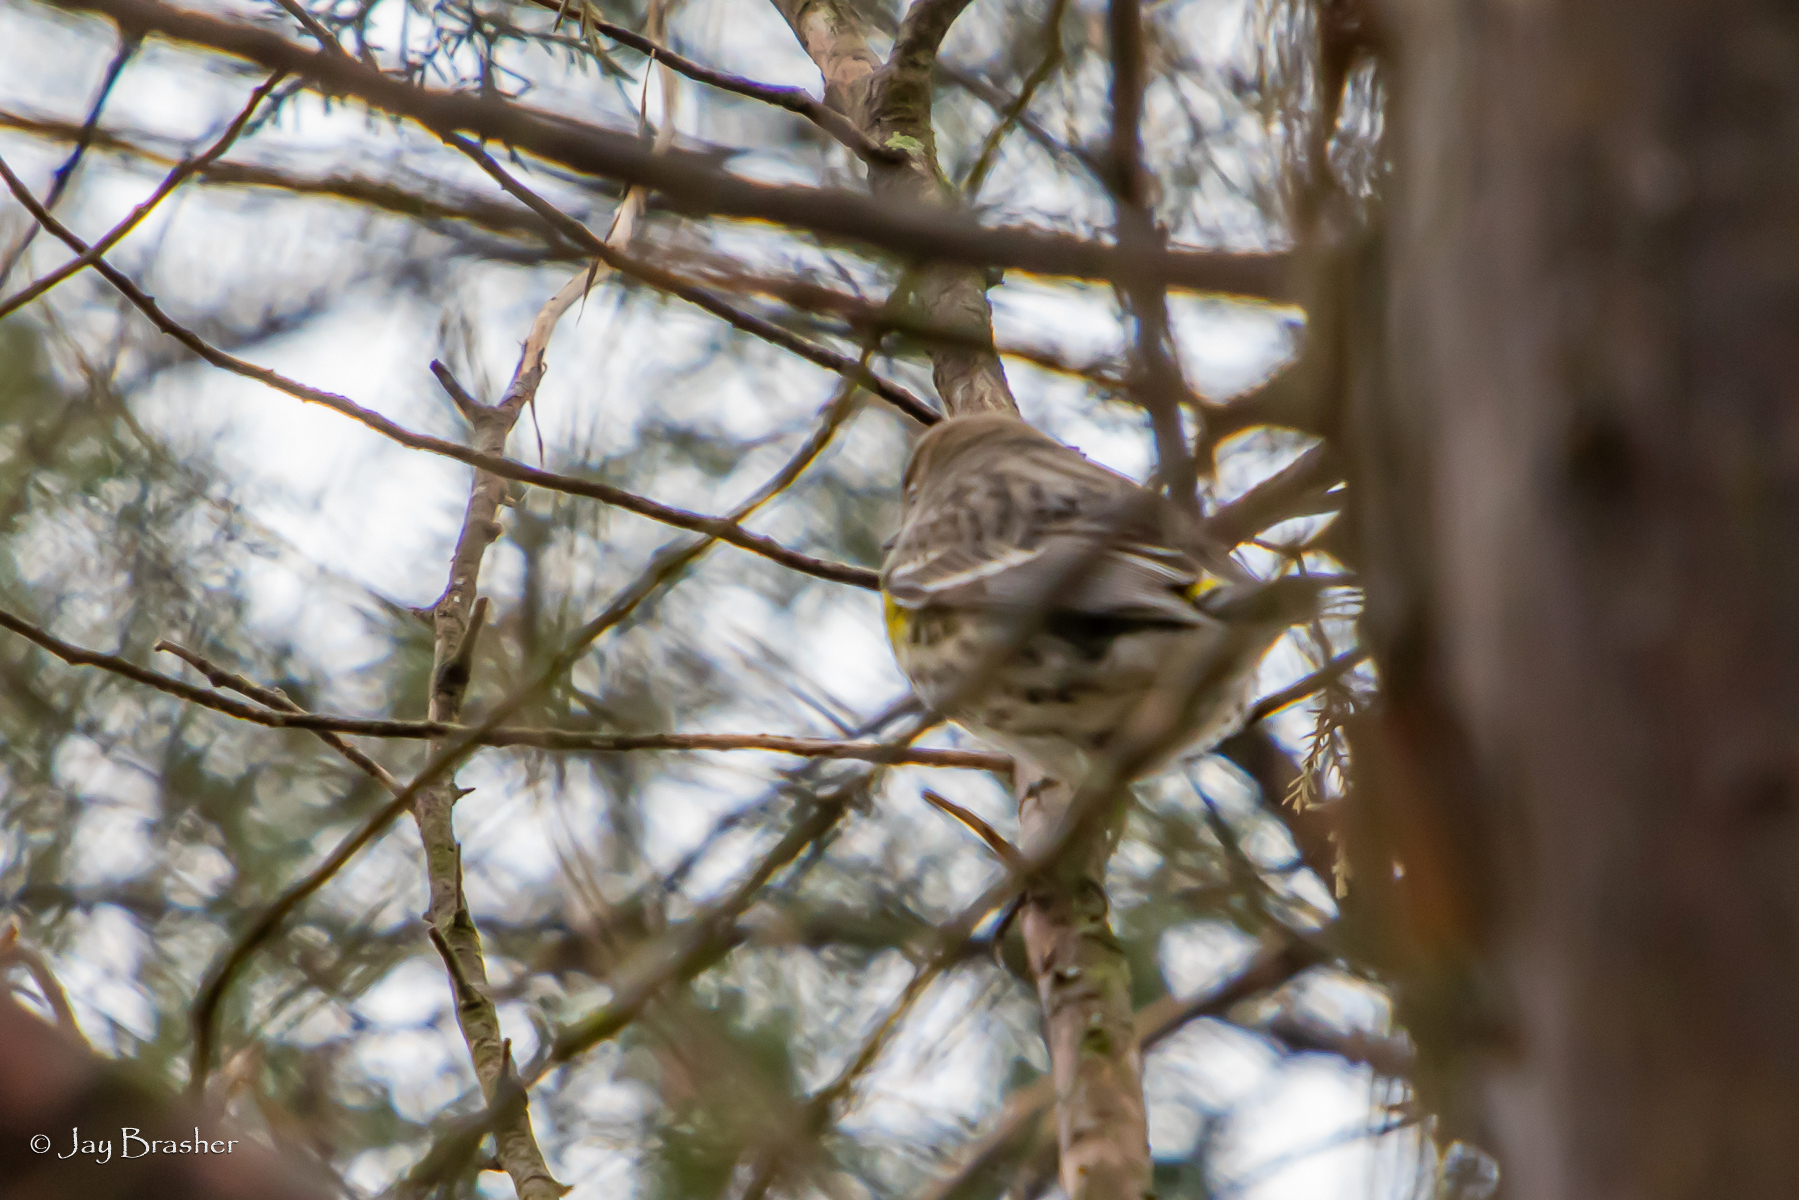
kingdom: Animalia
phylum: Chordata
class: Aves
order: Passeriformes
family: Parulidae
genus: Setophaga
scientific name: Setophaga coronata
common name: Myrtle warbler
